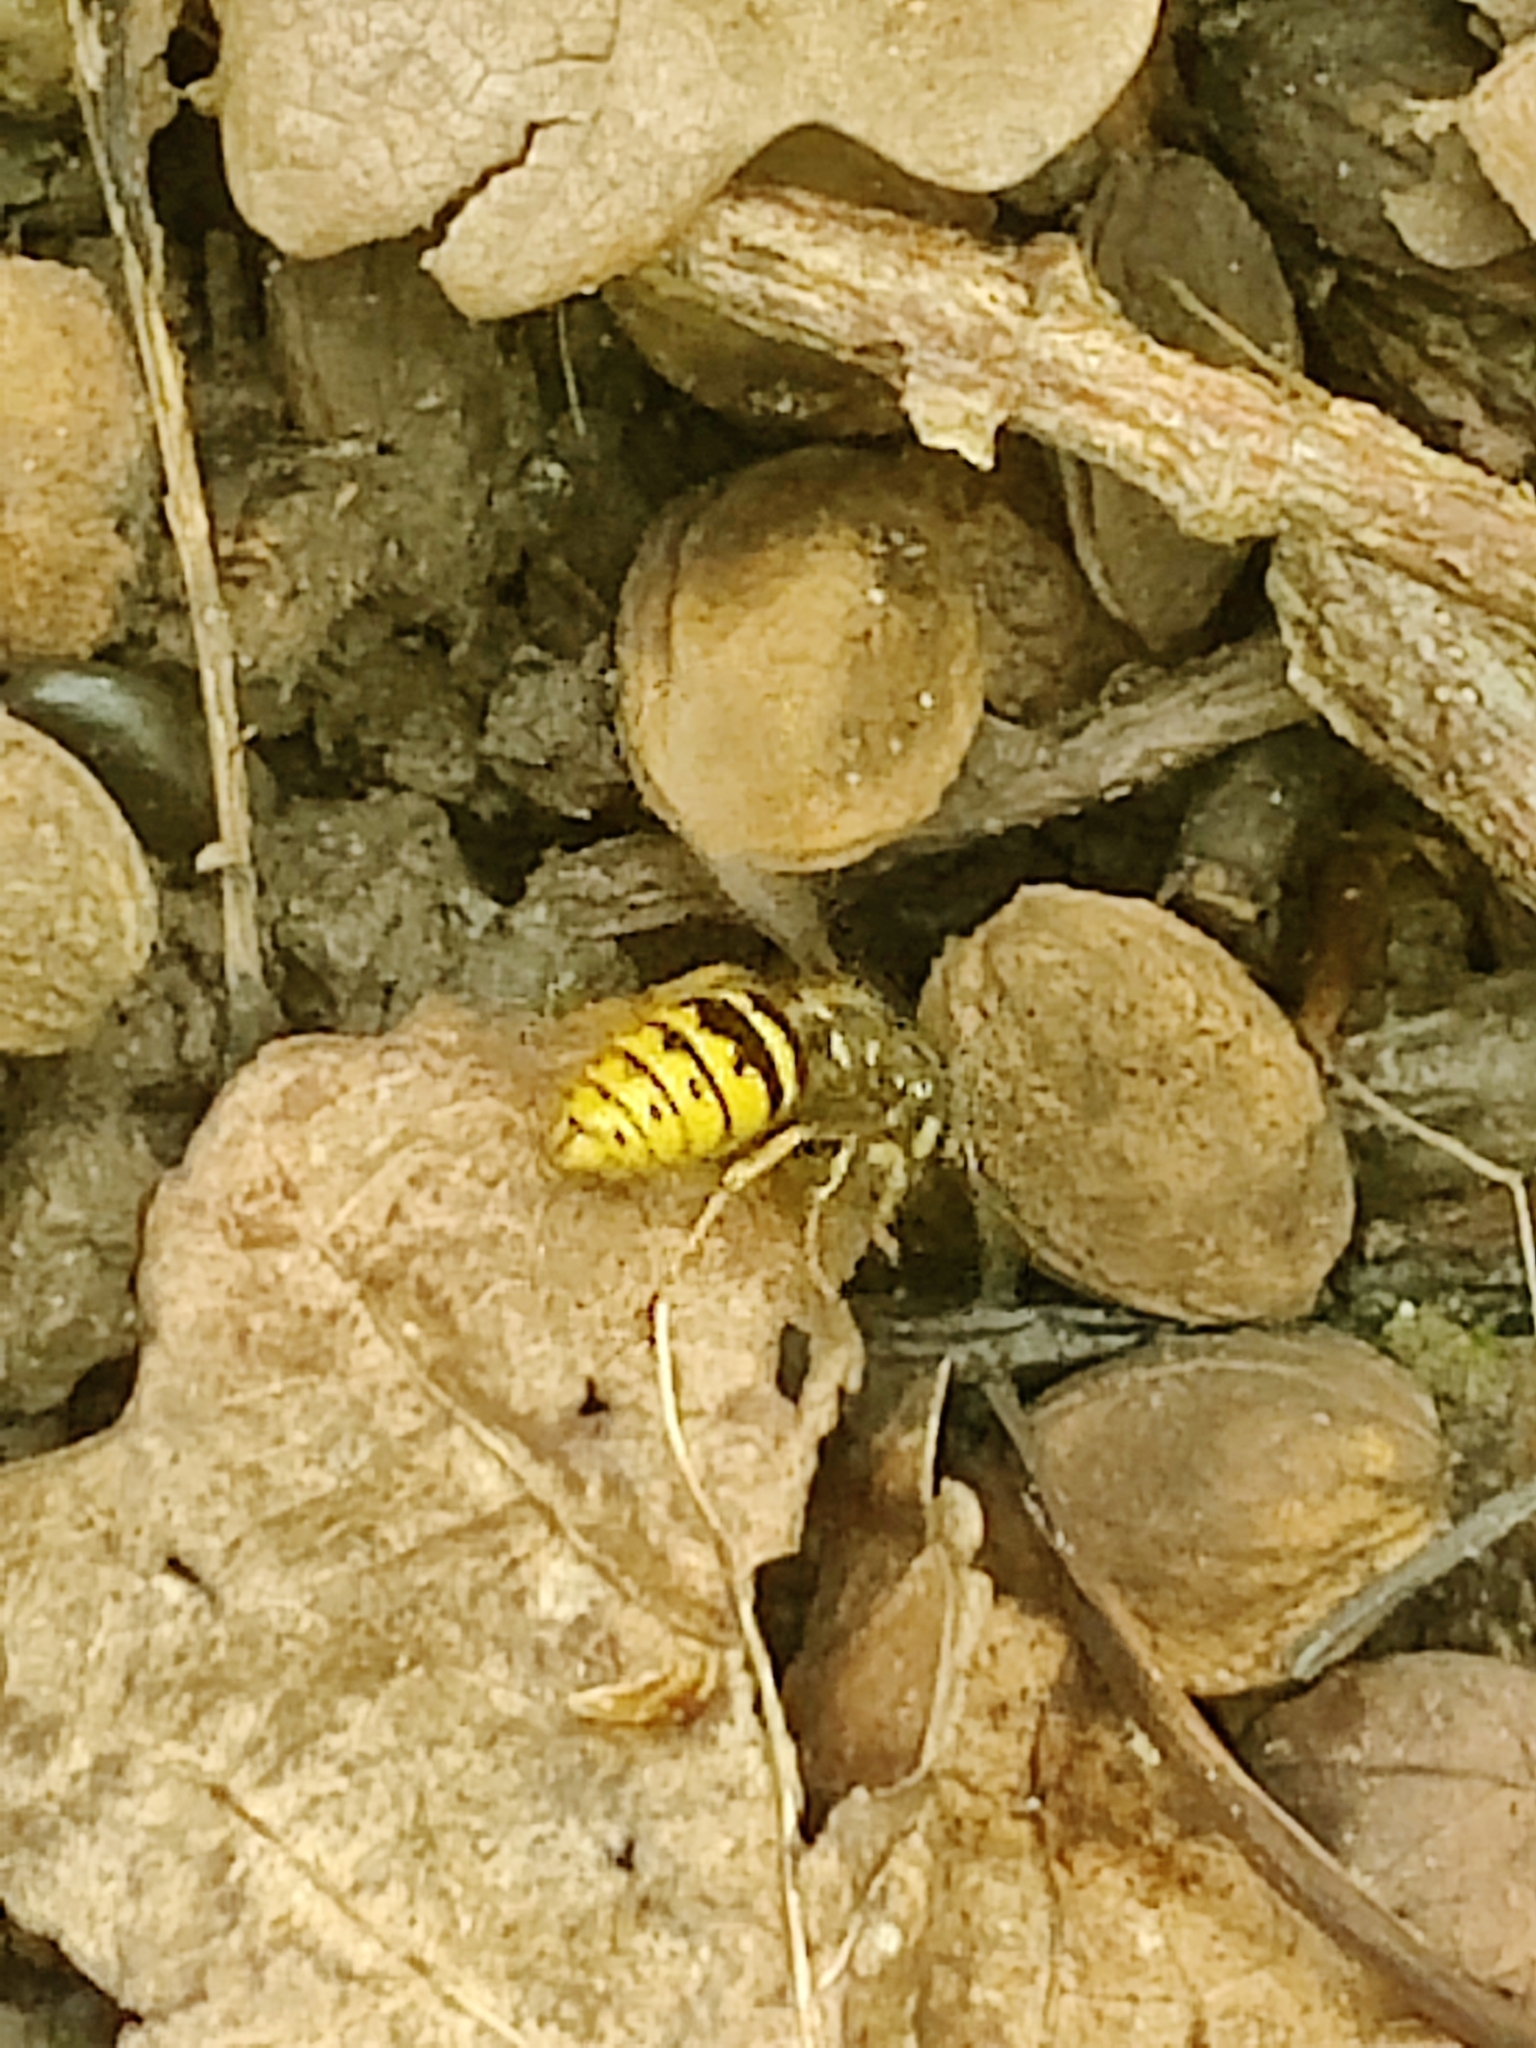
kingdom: Animalia
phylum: Arthropoda
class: Insecta
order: Hymenoptera
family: Vespidae
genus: Vespula
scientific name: Vespula vulgaris
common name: Common wasp
